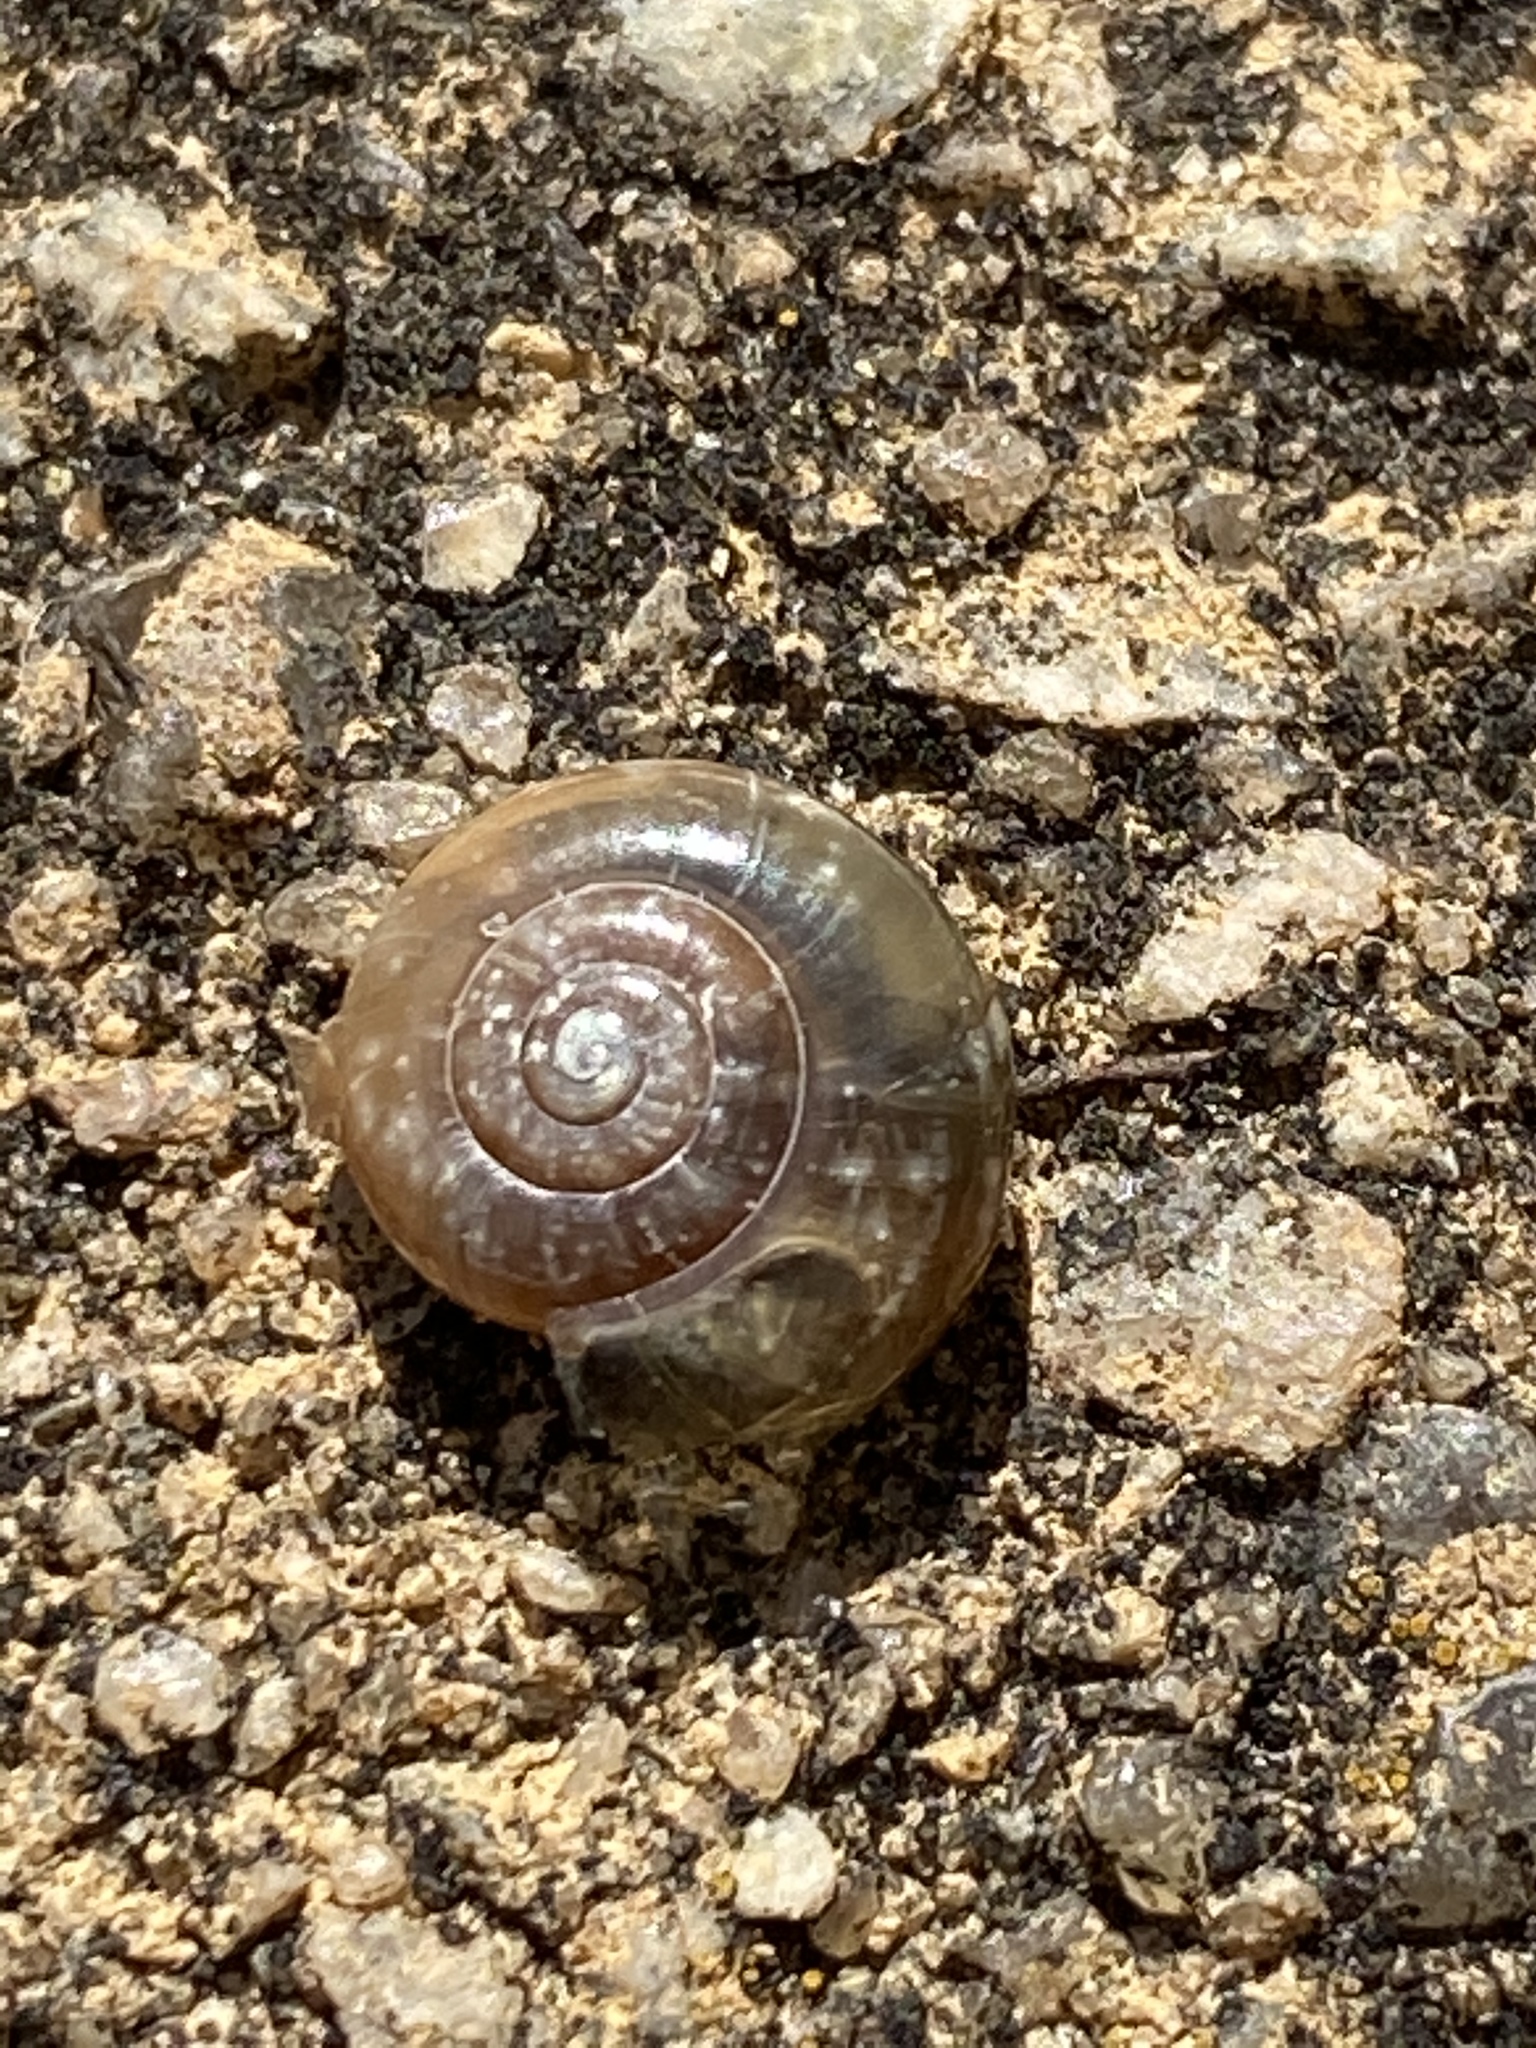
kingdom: Animalia
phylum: Mollusca
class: Gastropoda
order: Stylommatophora
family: Oxychilidae
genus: Oxychilus
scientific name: Oxychilus draparnaudi
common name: Draparnaud's glass snail
